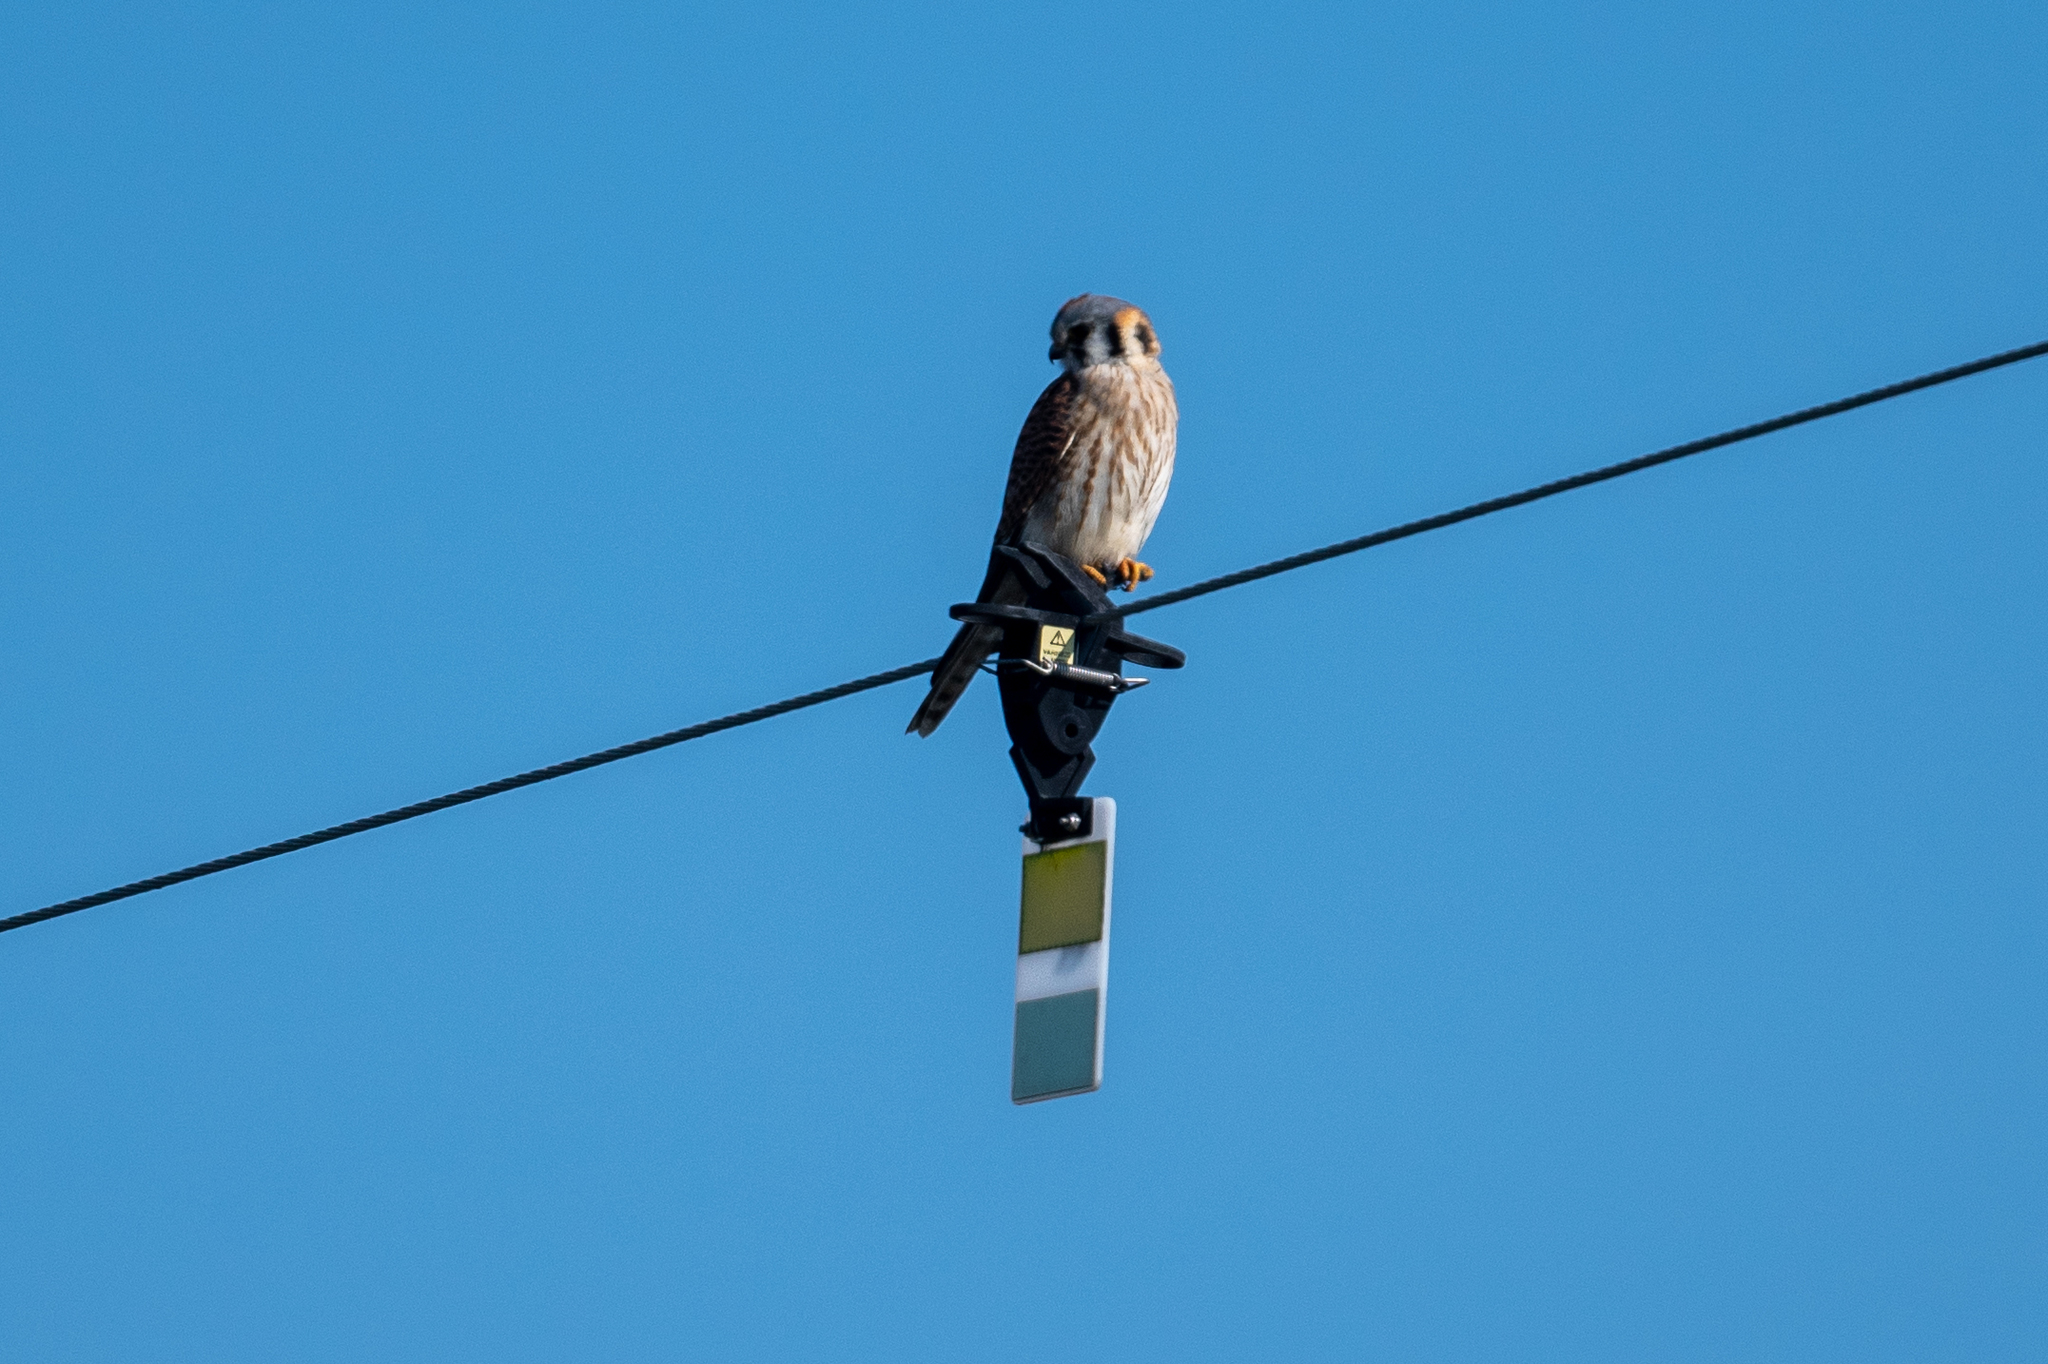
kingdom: Animalia
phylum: Chordata
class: Aves
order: Falconiformes
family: Falconidae
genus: Falco
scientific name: Falco sparverius
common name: American kestrel
